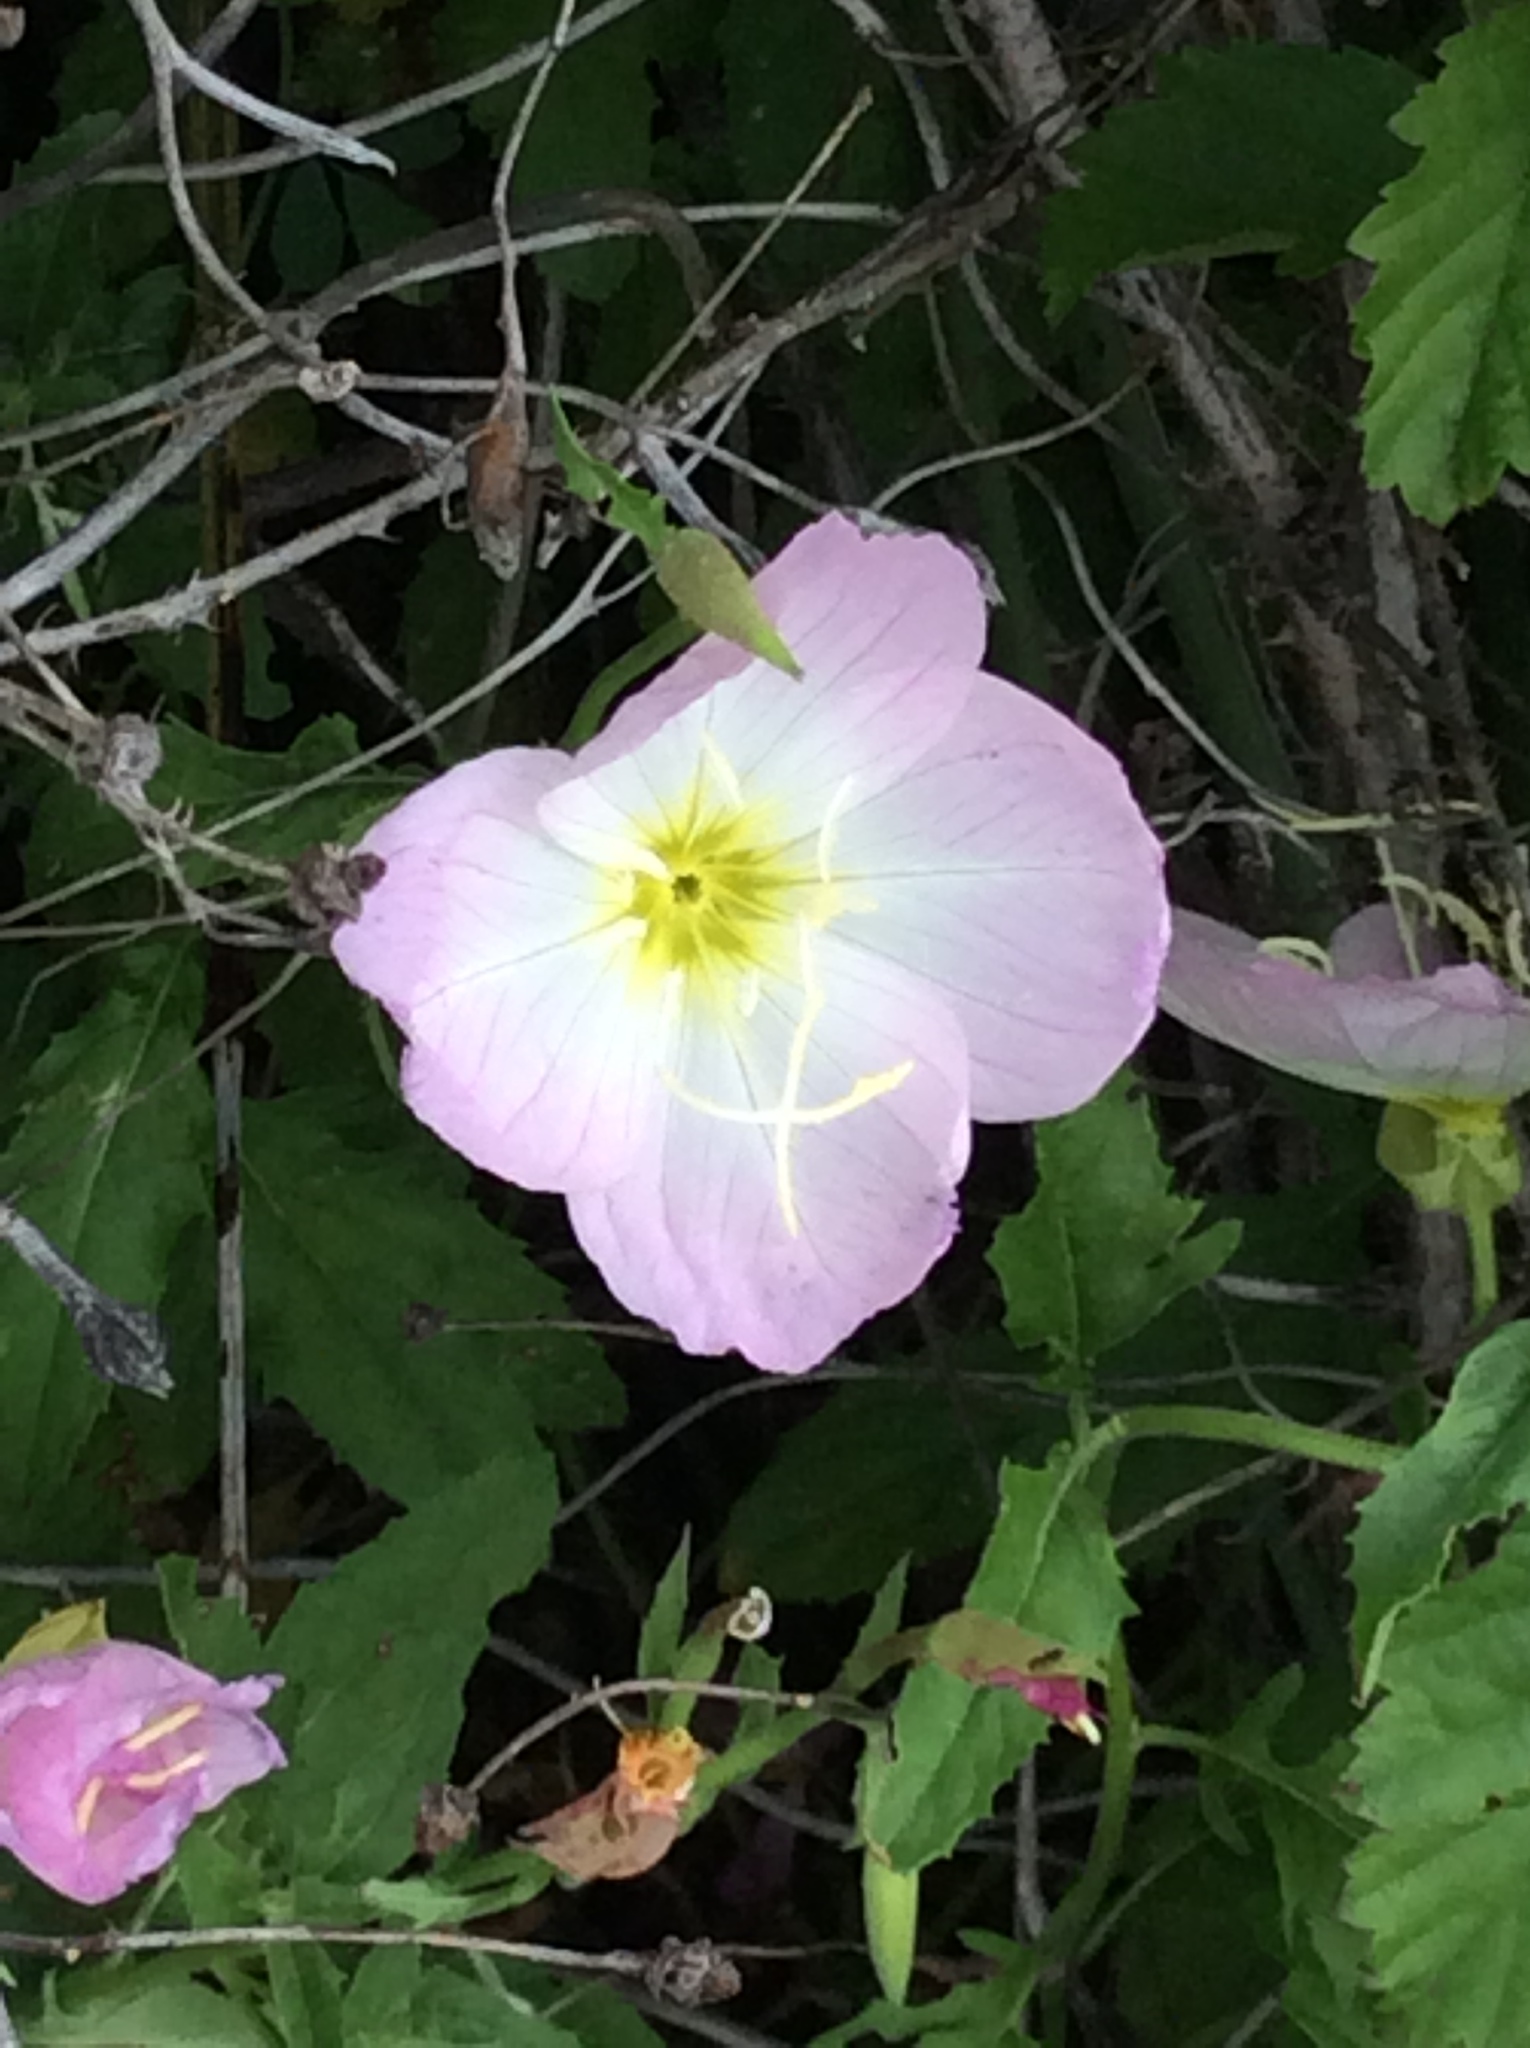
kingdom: Plantae
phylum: Tracheophyta
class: Magnoliopsida
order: Myrtales
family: Onagraceae
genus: Oenothera
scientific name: Oenothera speciosa
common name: White evening-primrose
